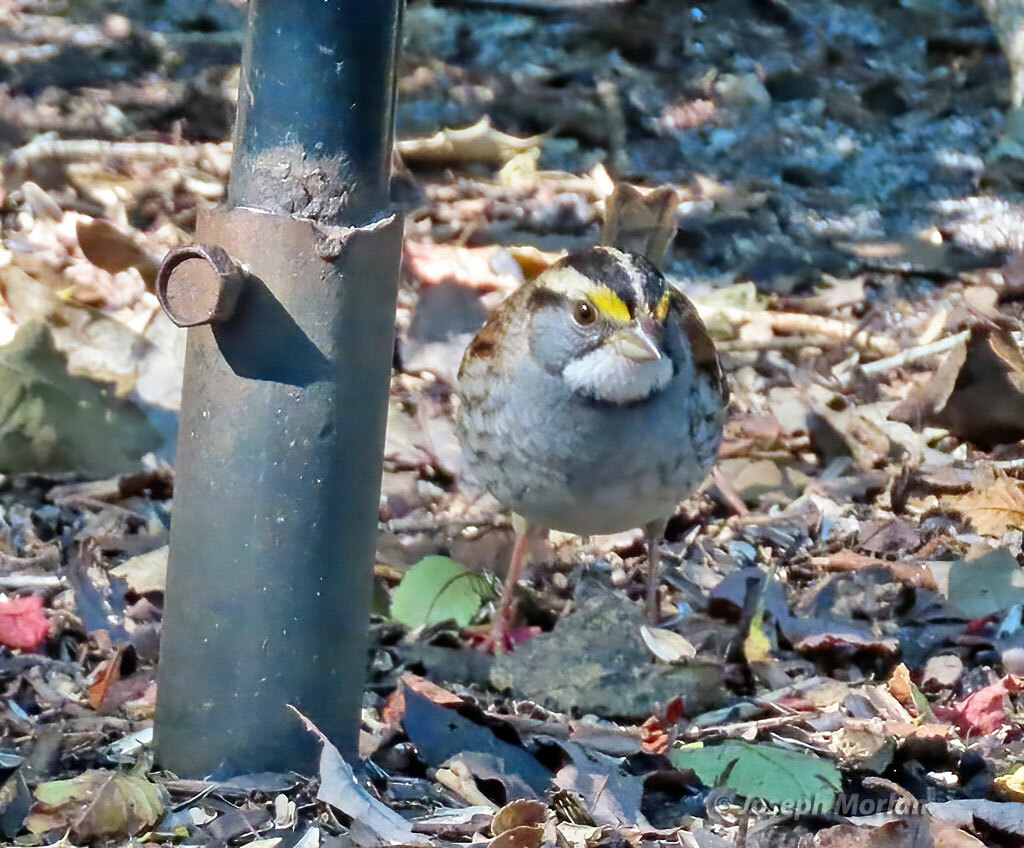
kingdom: Animalia
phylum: Chordata
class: Aves
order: Passeriformes
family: Passerellidae
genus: Zonotrichia
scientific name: Zonotrichia albicollis
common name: White-throated sparrow
